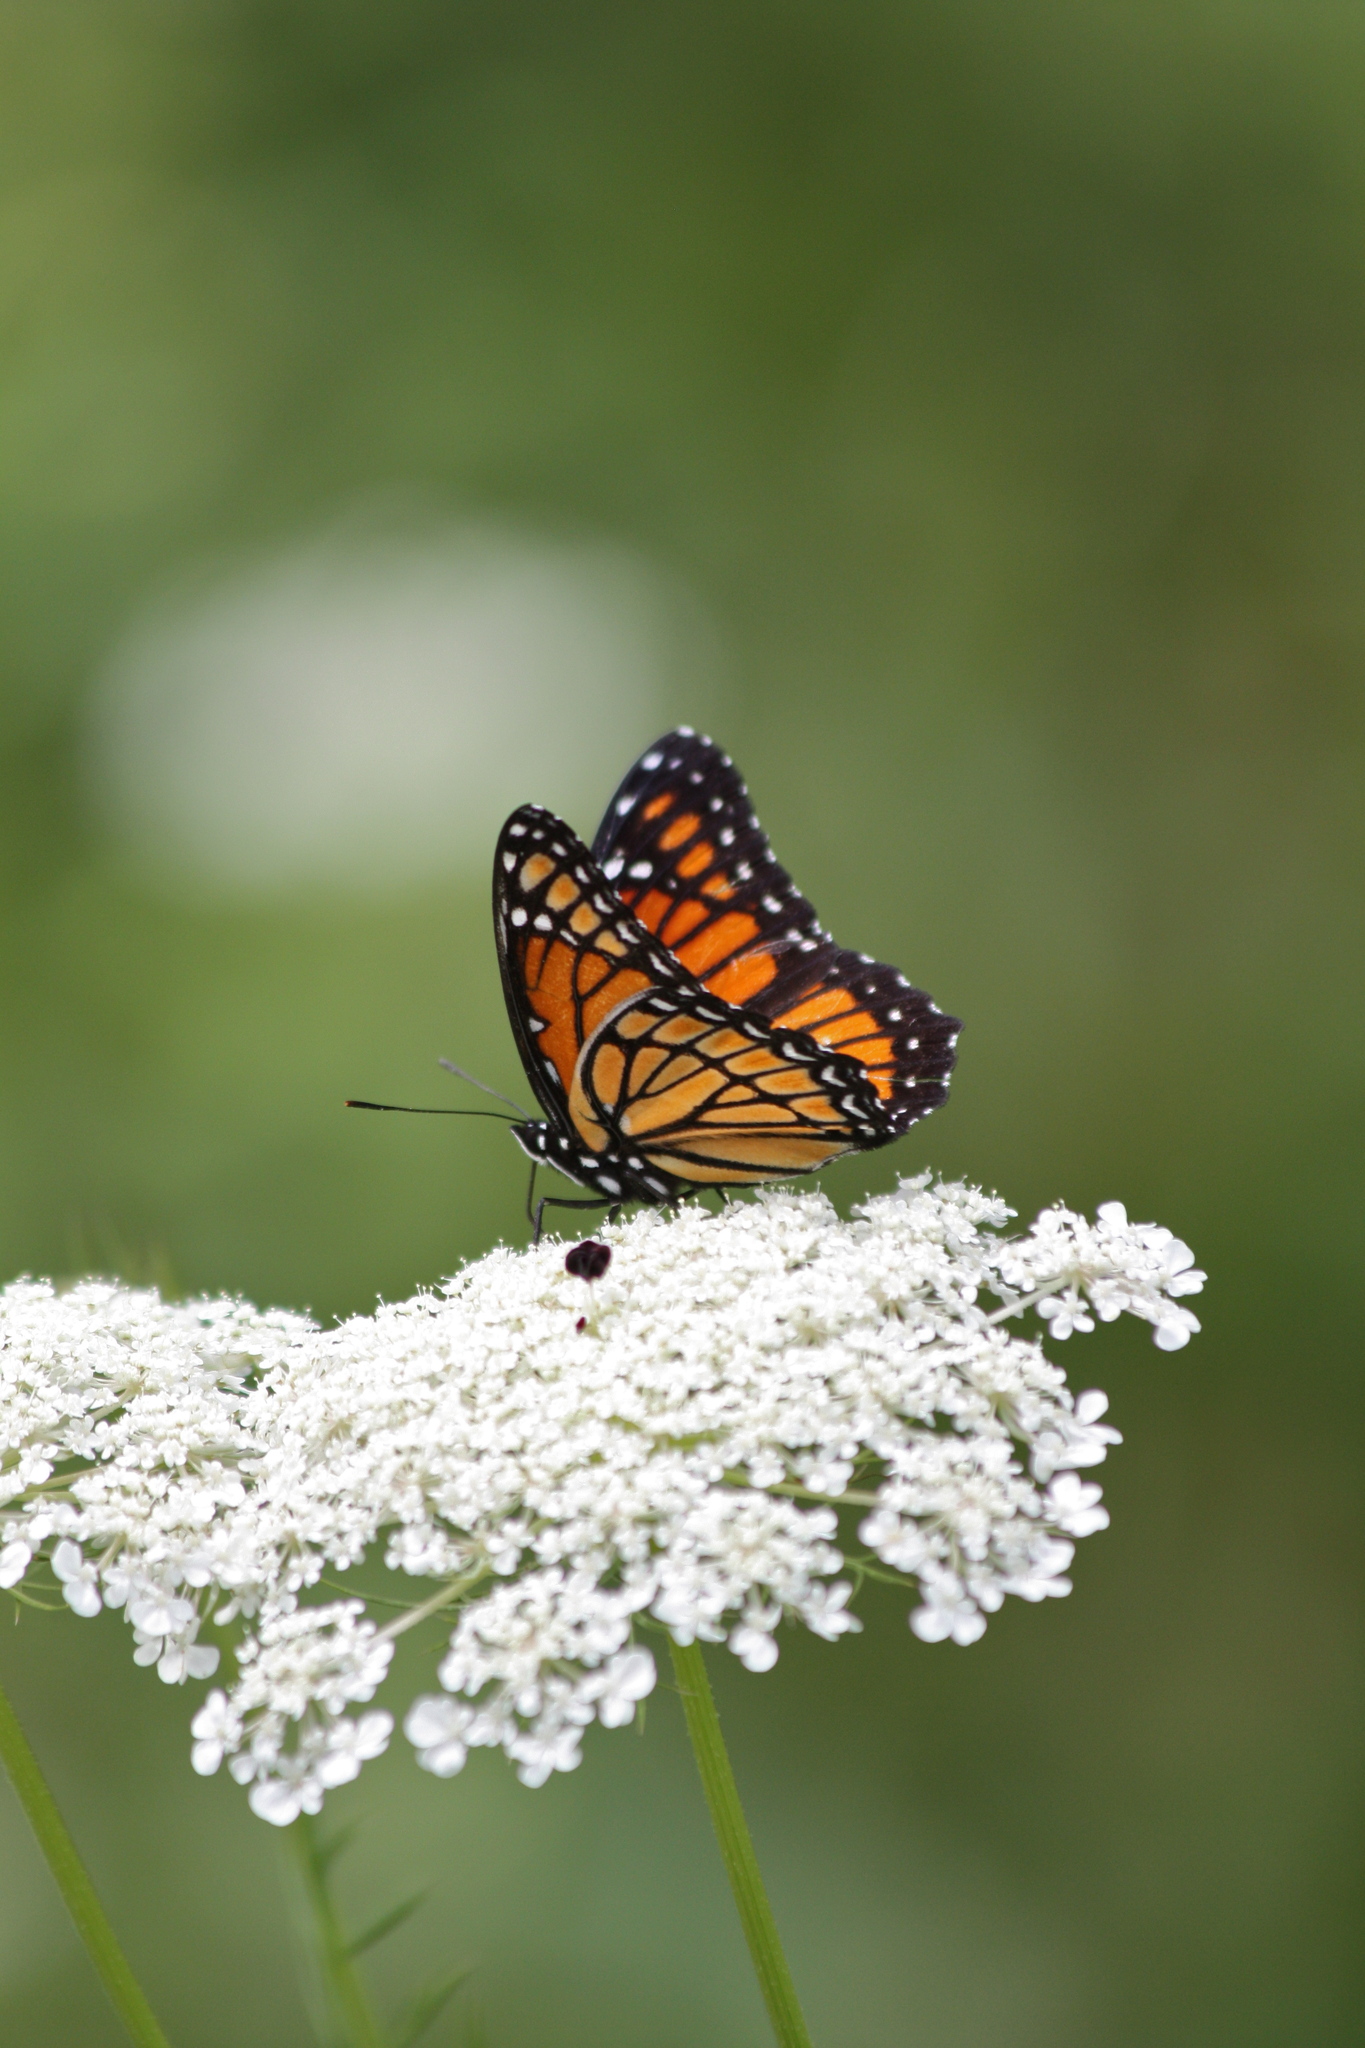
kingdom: Animalia
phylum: Arthropoda
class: Insecta
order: Lepidoptera
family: Nymphalidae
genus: Limenitis
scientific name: Limenitis archippus
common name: Viceroy
